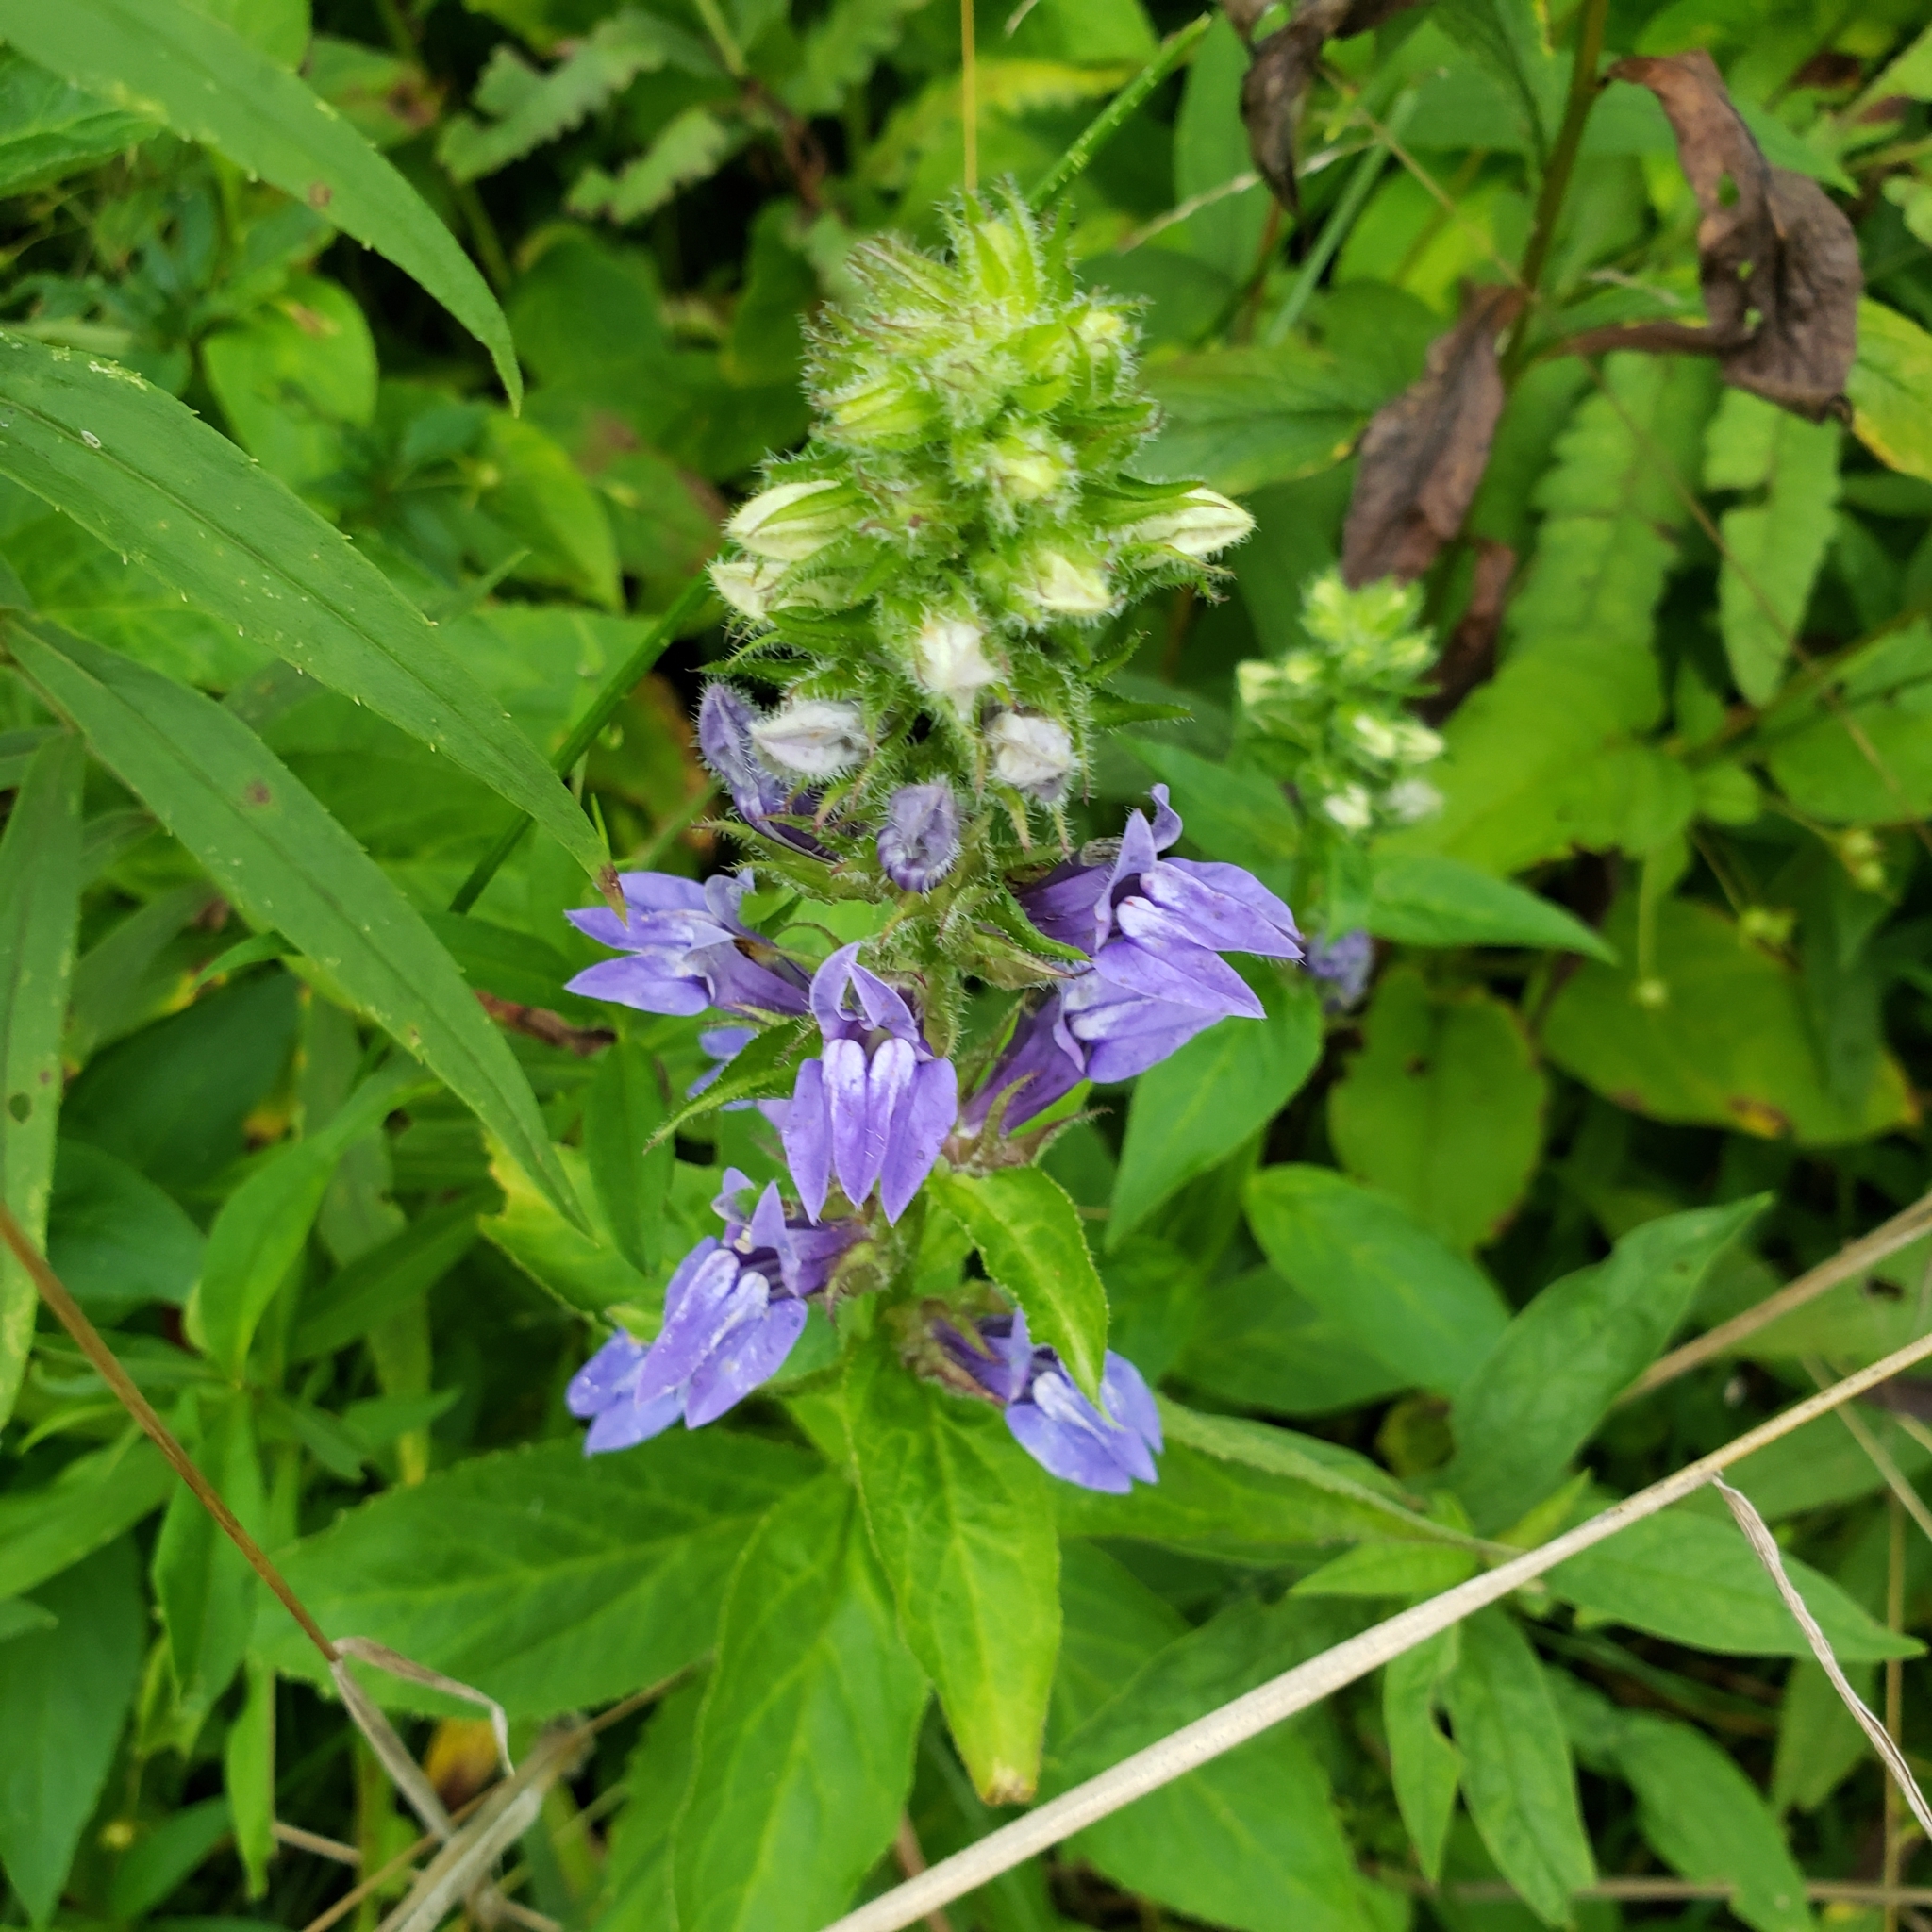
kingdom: Plantae
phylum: Tracheophyta
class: Magnoliopsida
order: Asterales
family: Campanulaceae
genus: Lobelia
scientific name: Lobelia siphilitica
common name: Great lobelia
